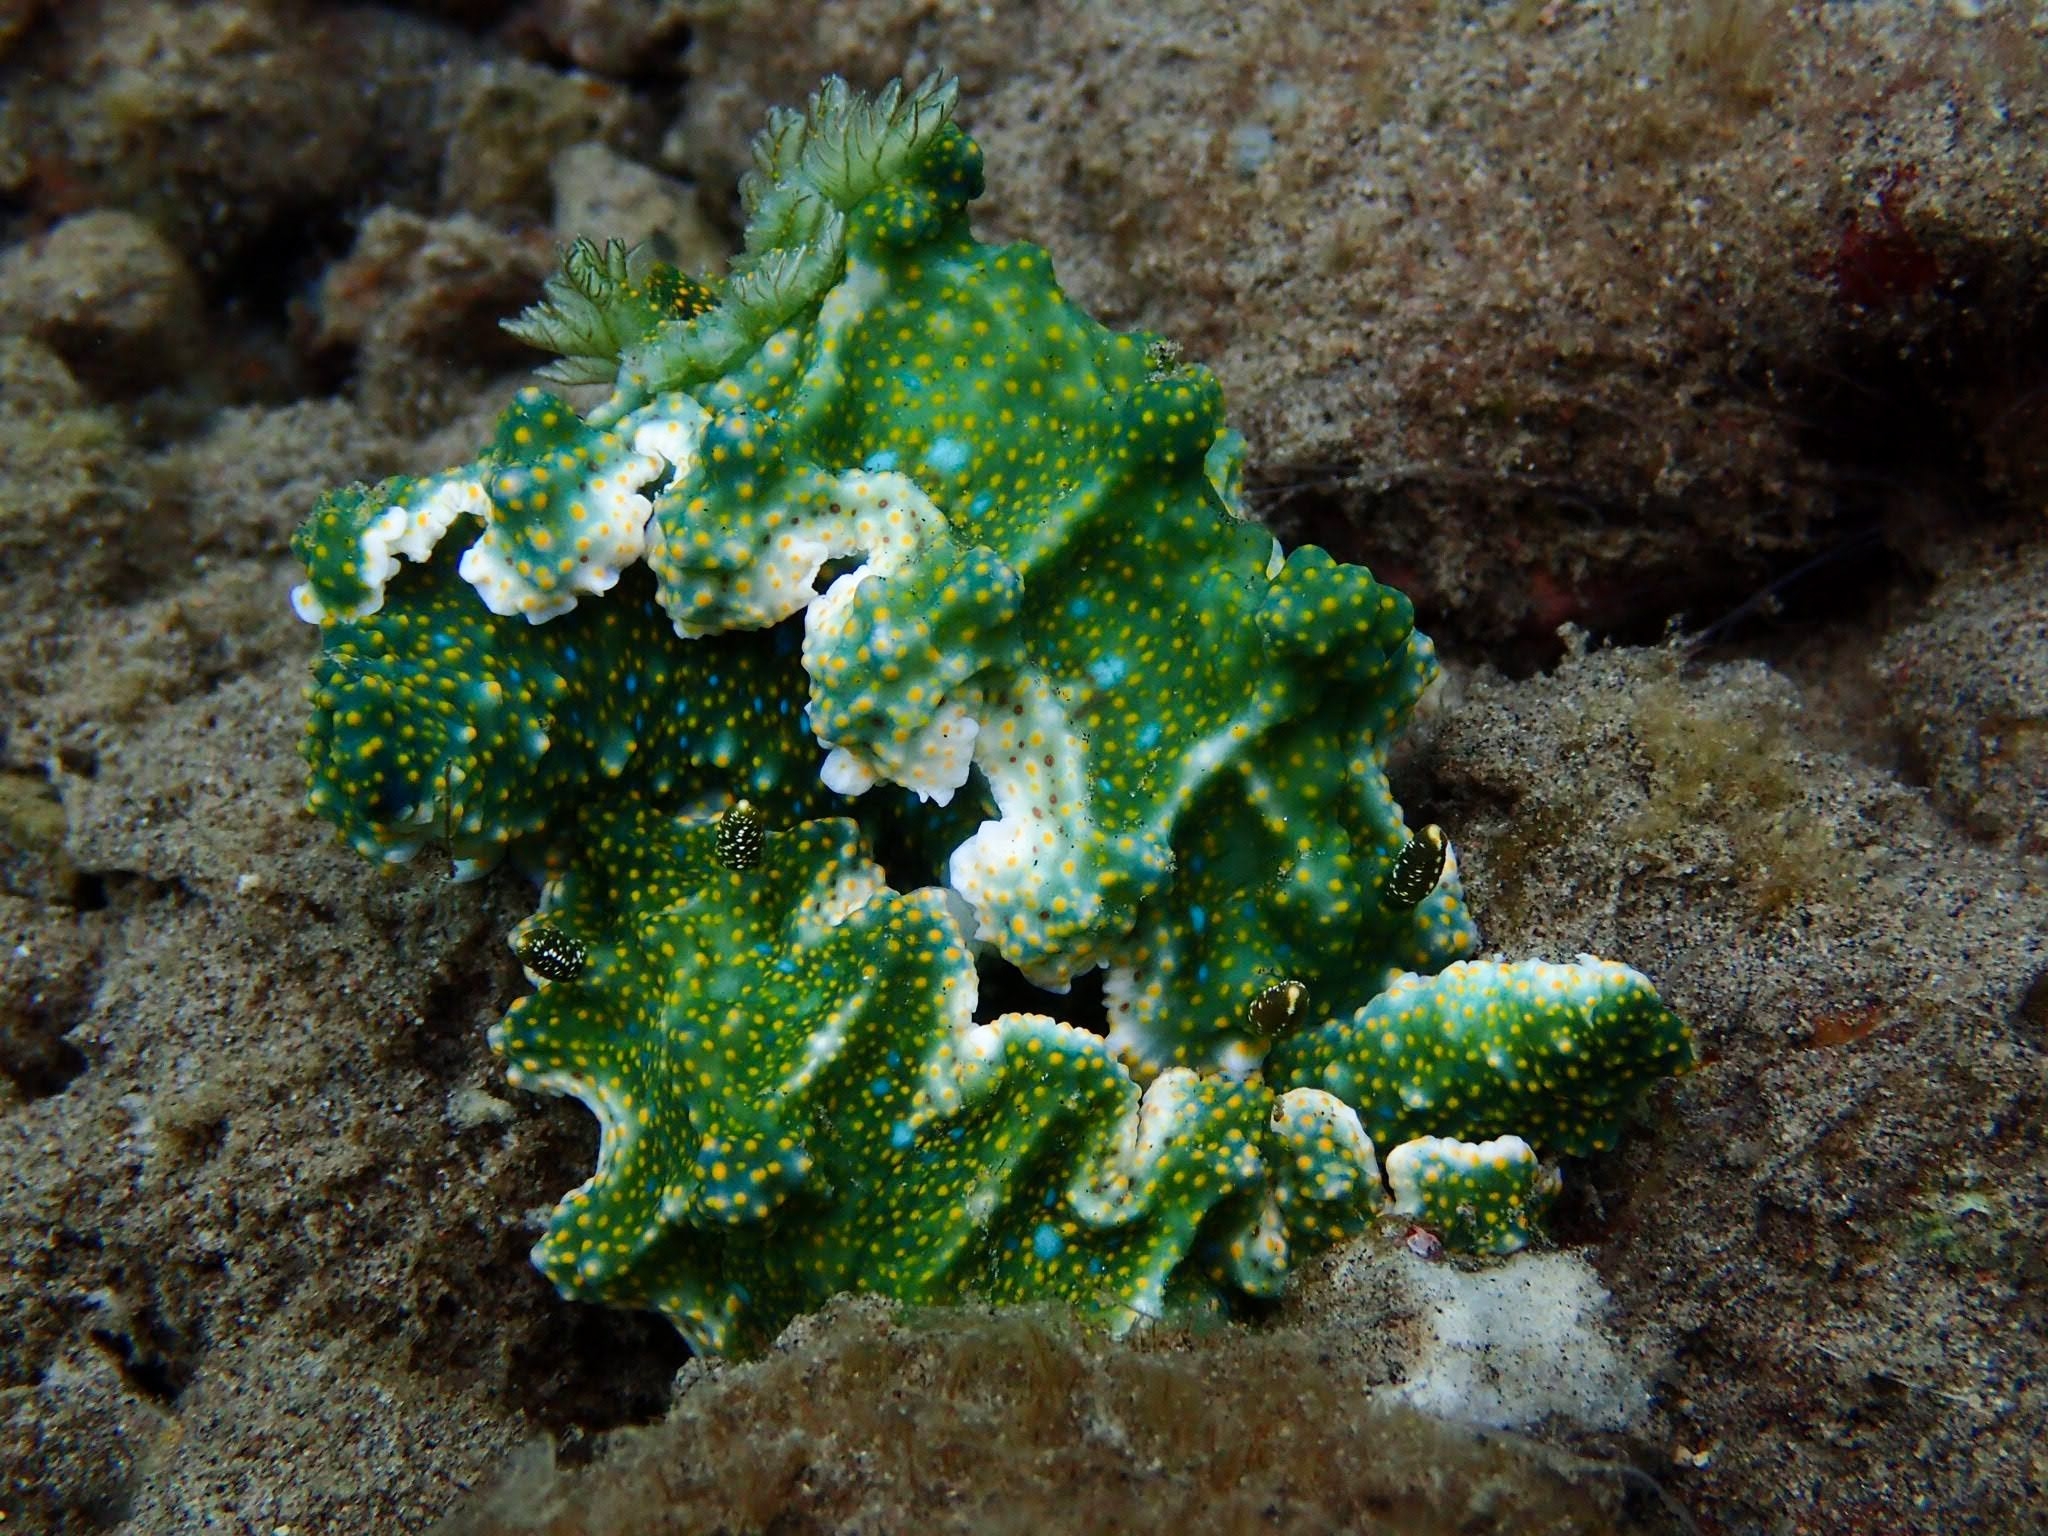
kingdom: Animalia
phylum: Mollusca
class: Gastropoda
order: Nudibranchia
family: Chromodorididae
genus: Miamira
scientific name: Miamira sinuata
